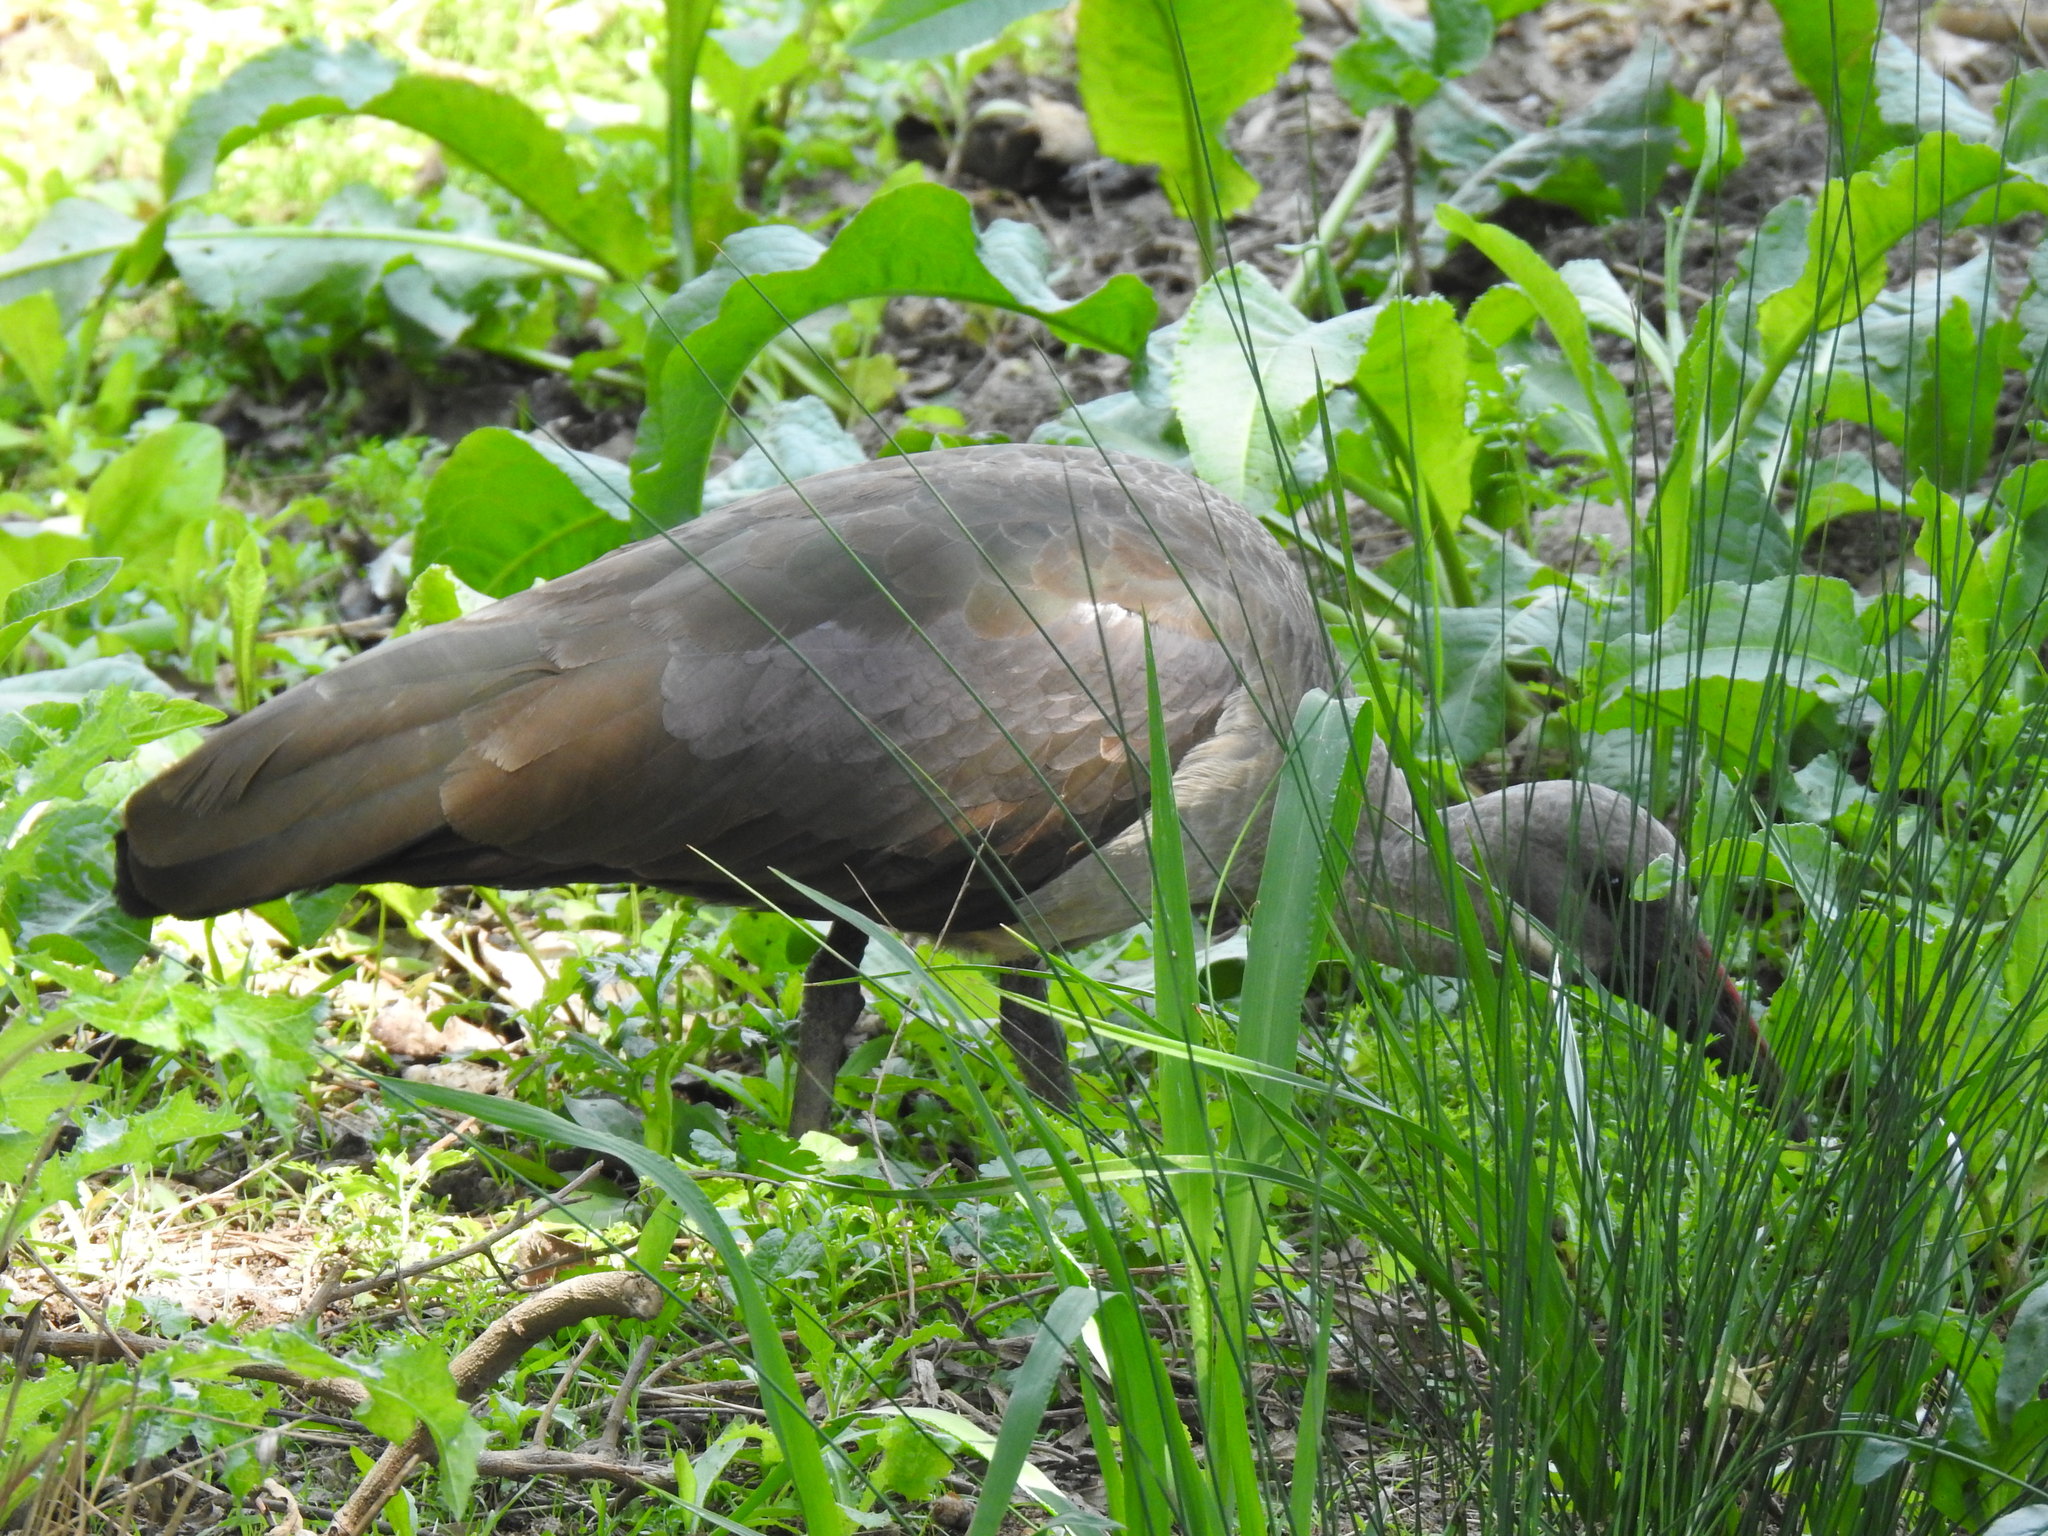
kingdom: Animalia
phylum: Chordata
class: Aves
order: Pelecaniformes
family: Threskiornithidae
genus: Bostrychia
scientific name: Bostrychia hagedash
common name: Hadada ibis
